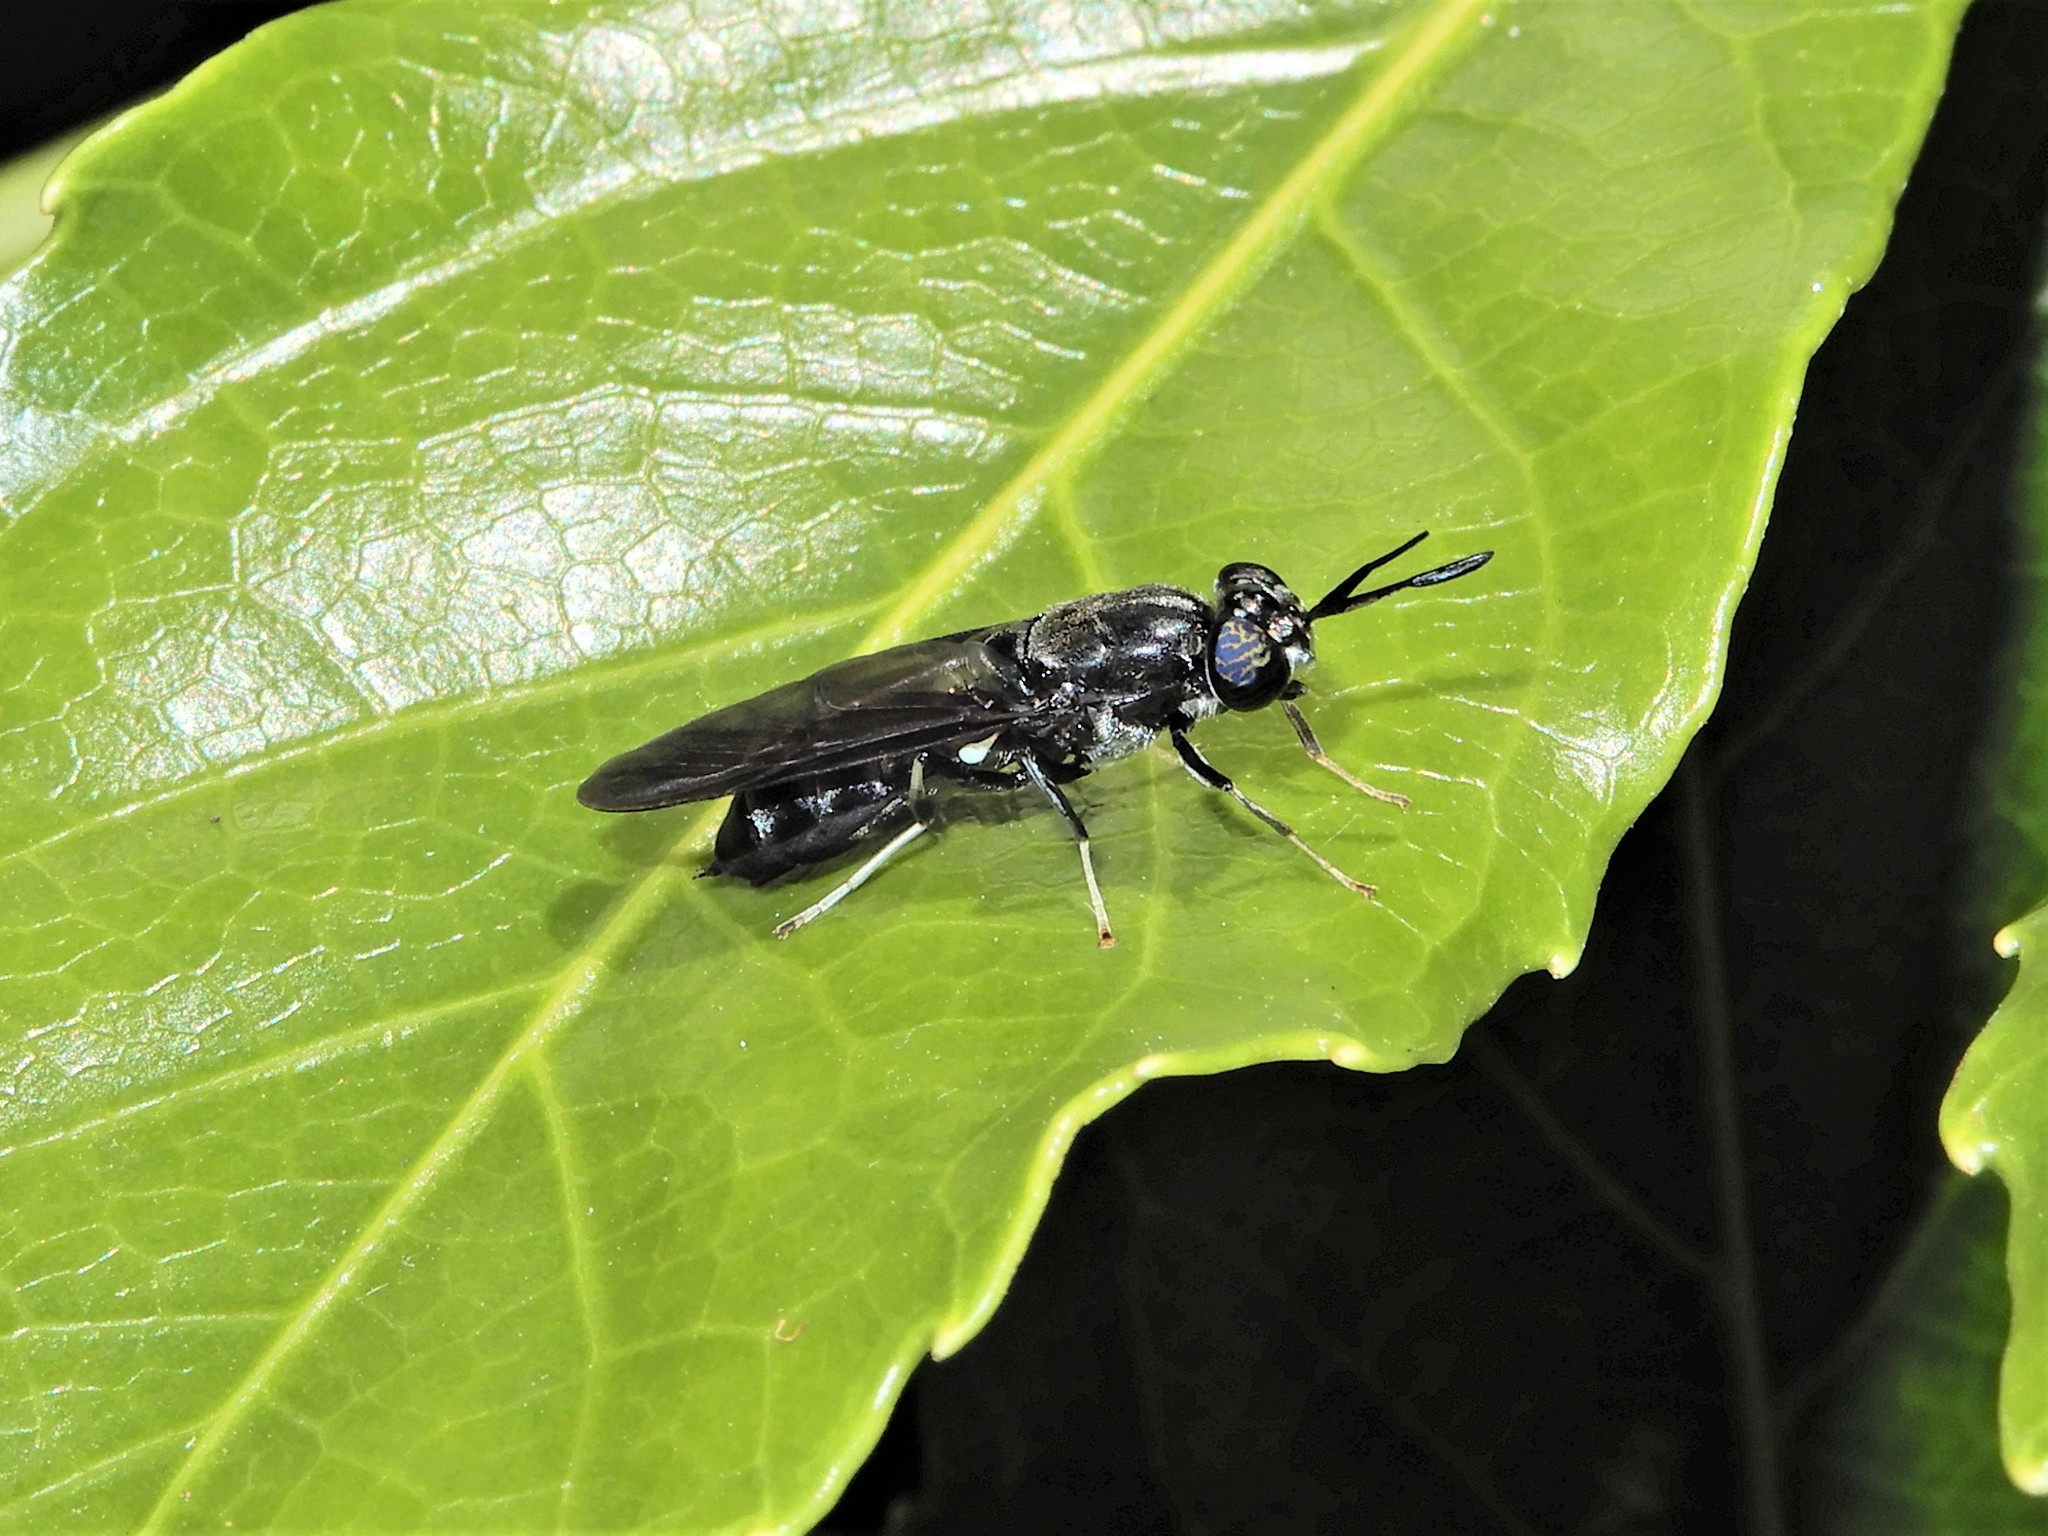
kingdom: Animalia
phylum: Arthropoda
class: Insecta
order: Diptera
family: Stratiomyidae
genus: Hermetia
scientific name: Hermetia illucens
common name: Black soldier fly
